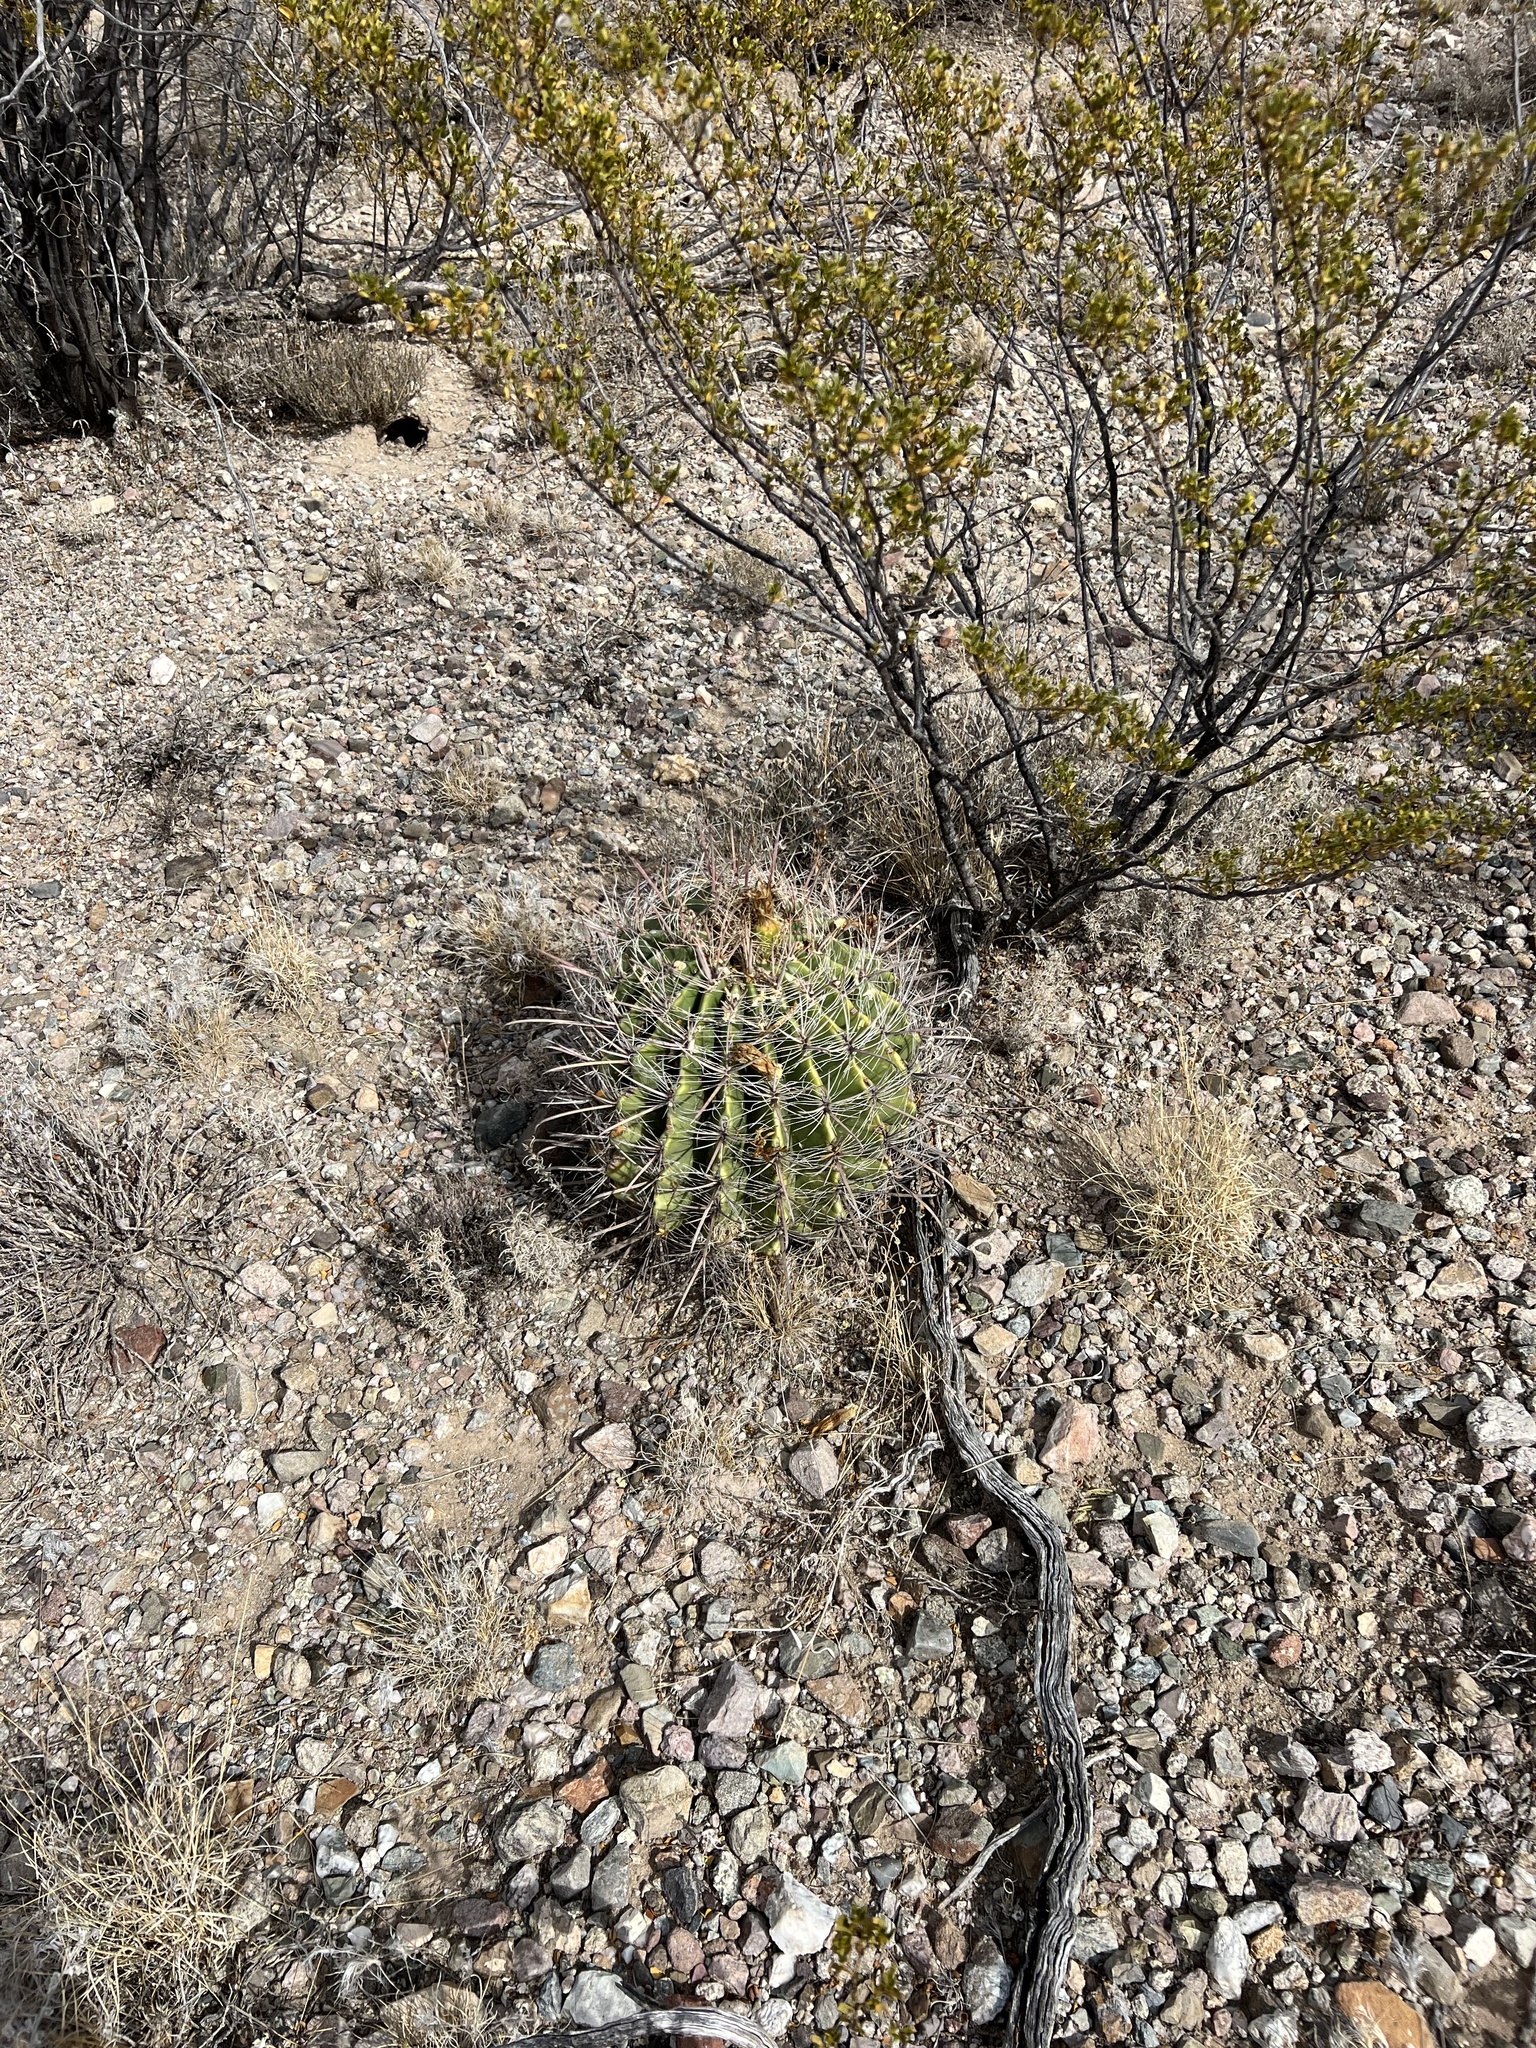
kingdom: Plantae
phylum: Tracheophyta
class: Magnoliopsida
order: Caryophyllales
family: Cactaceae
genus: Ferocactus
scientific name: Ferocactus wislizeni
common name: Candy barrel cactus
